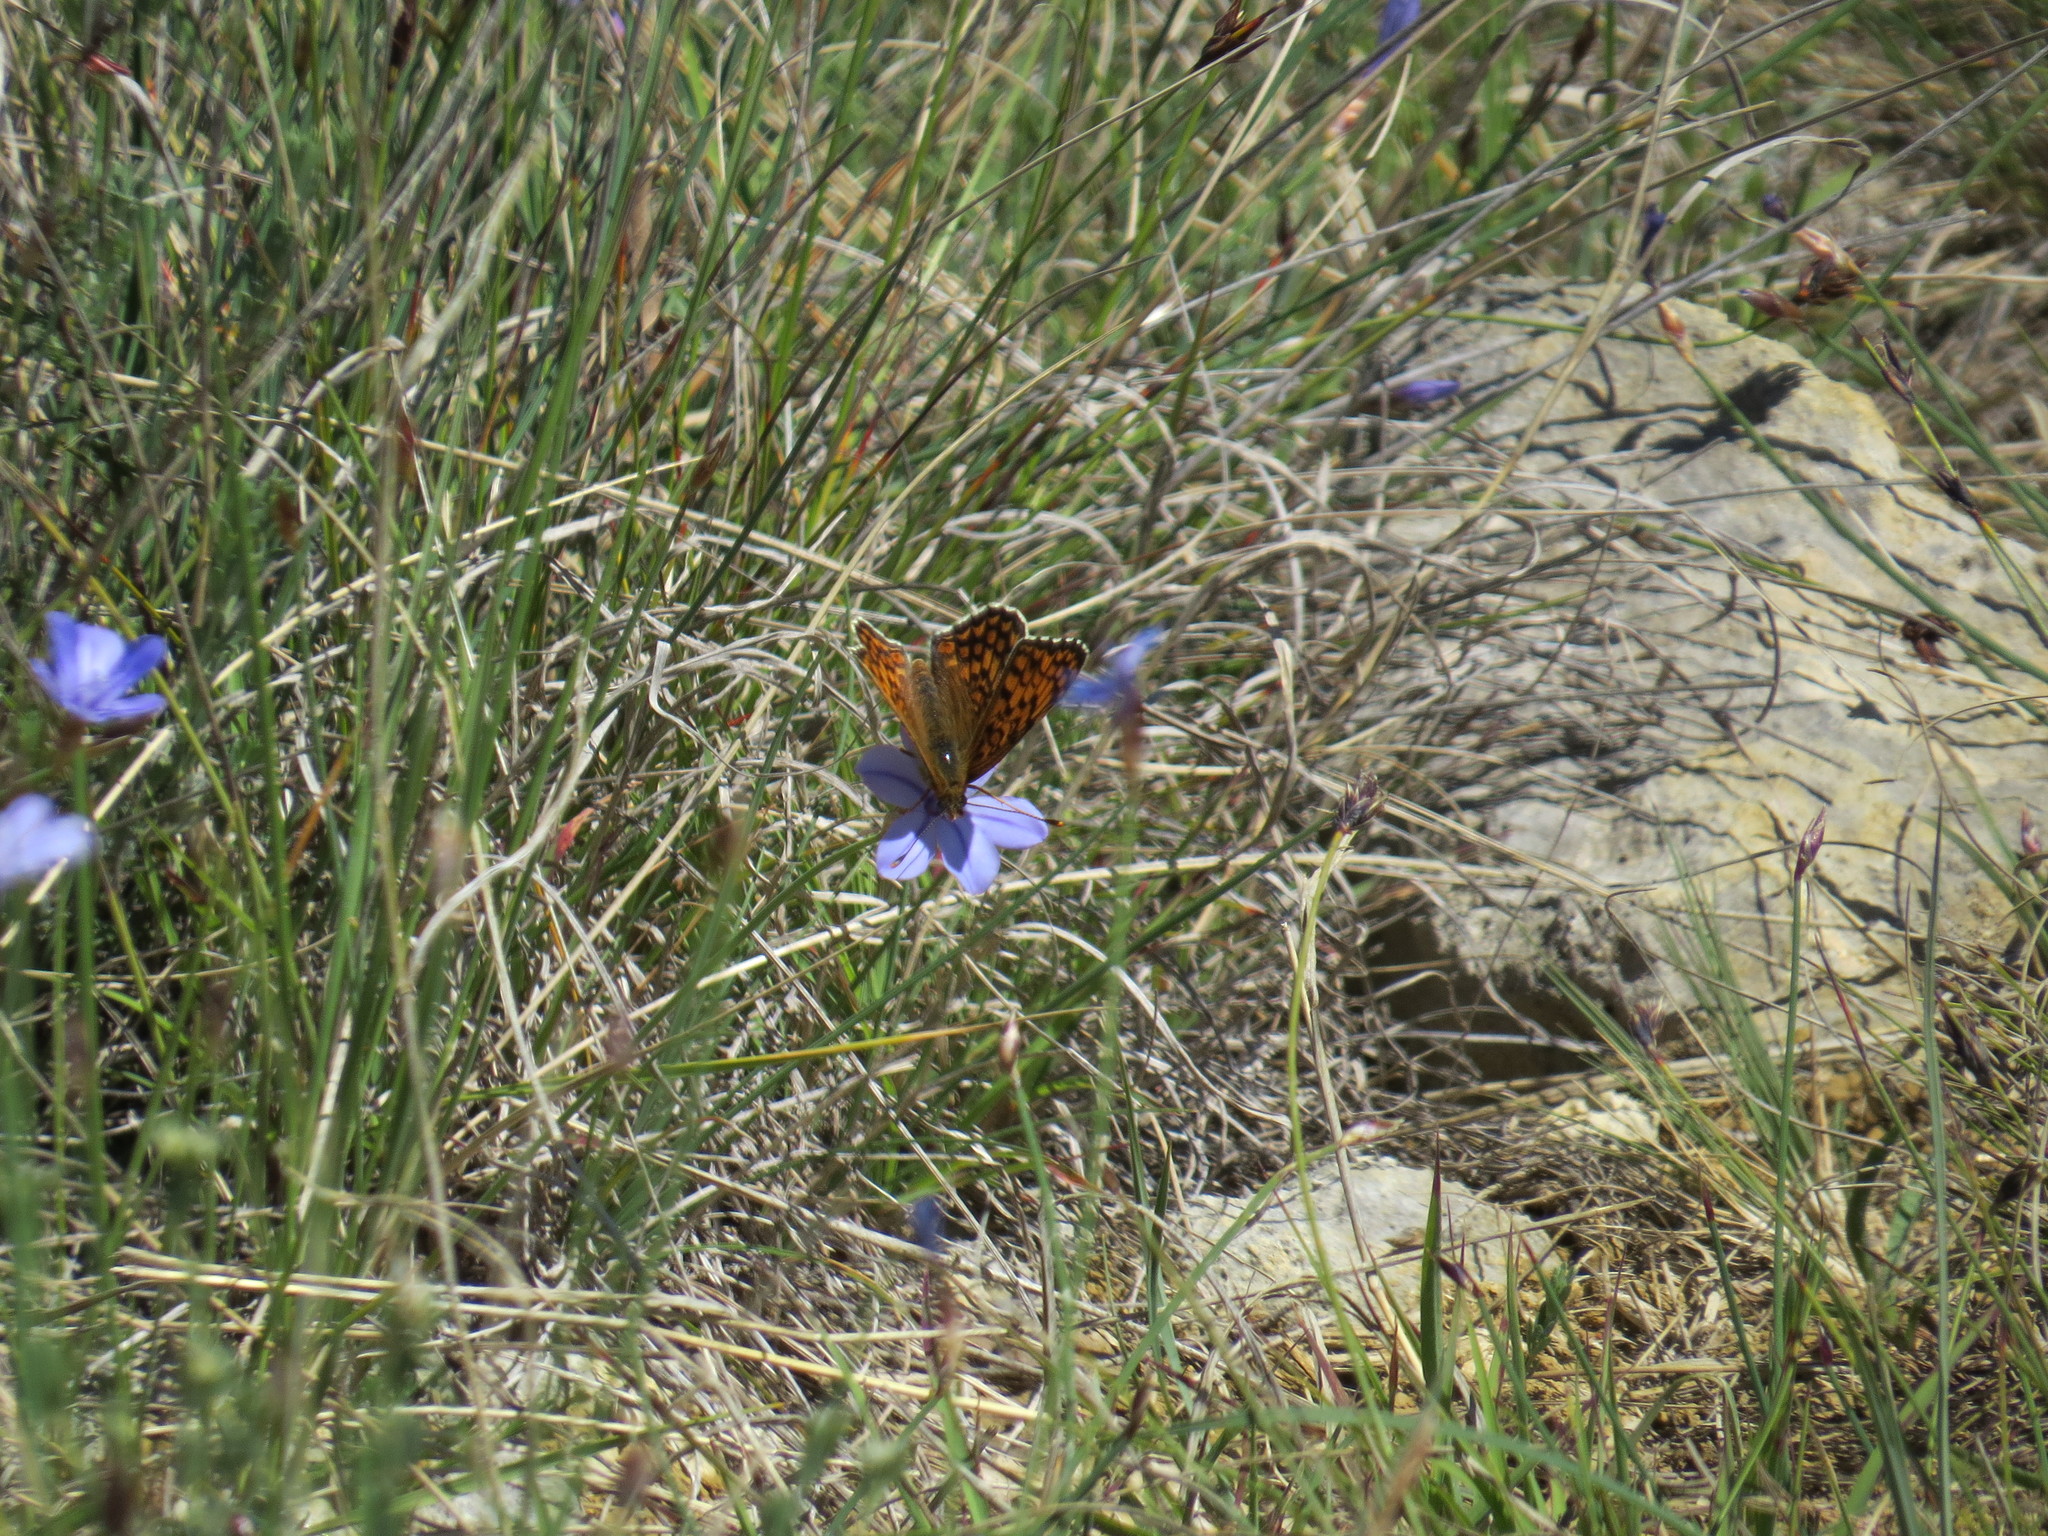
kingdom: Animalia
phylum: Arthropoda
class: Insecta
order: Lepidoptera
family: Nymphalidae
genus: Melitaea
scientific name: Melitaea phoebe
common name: Knapweed fritillary
